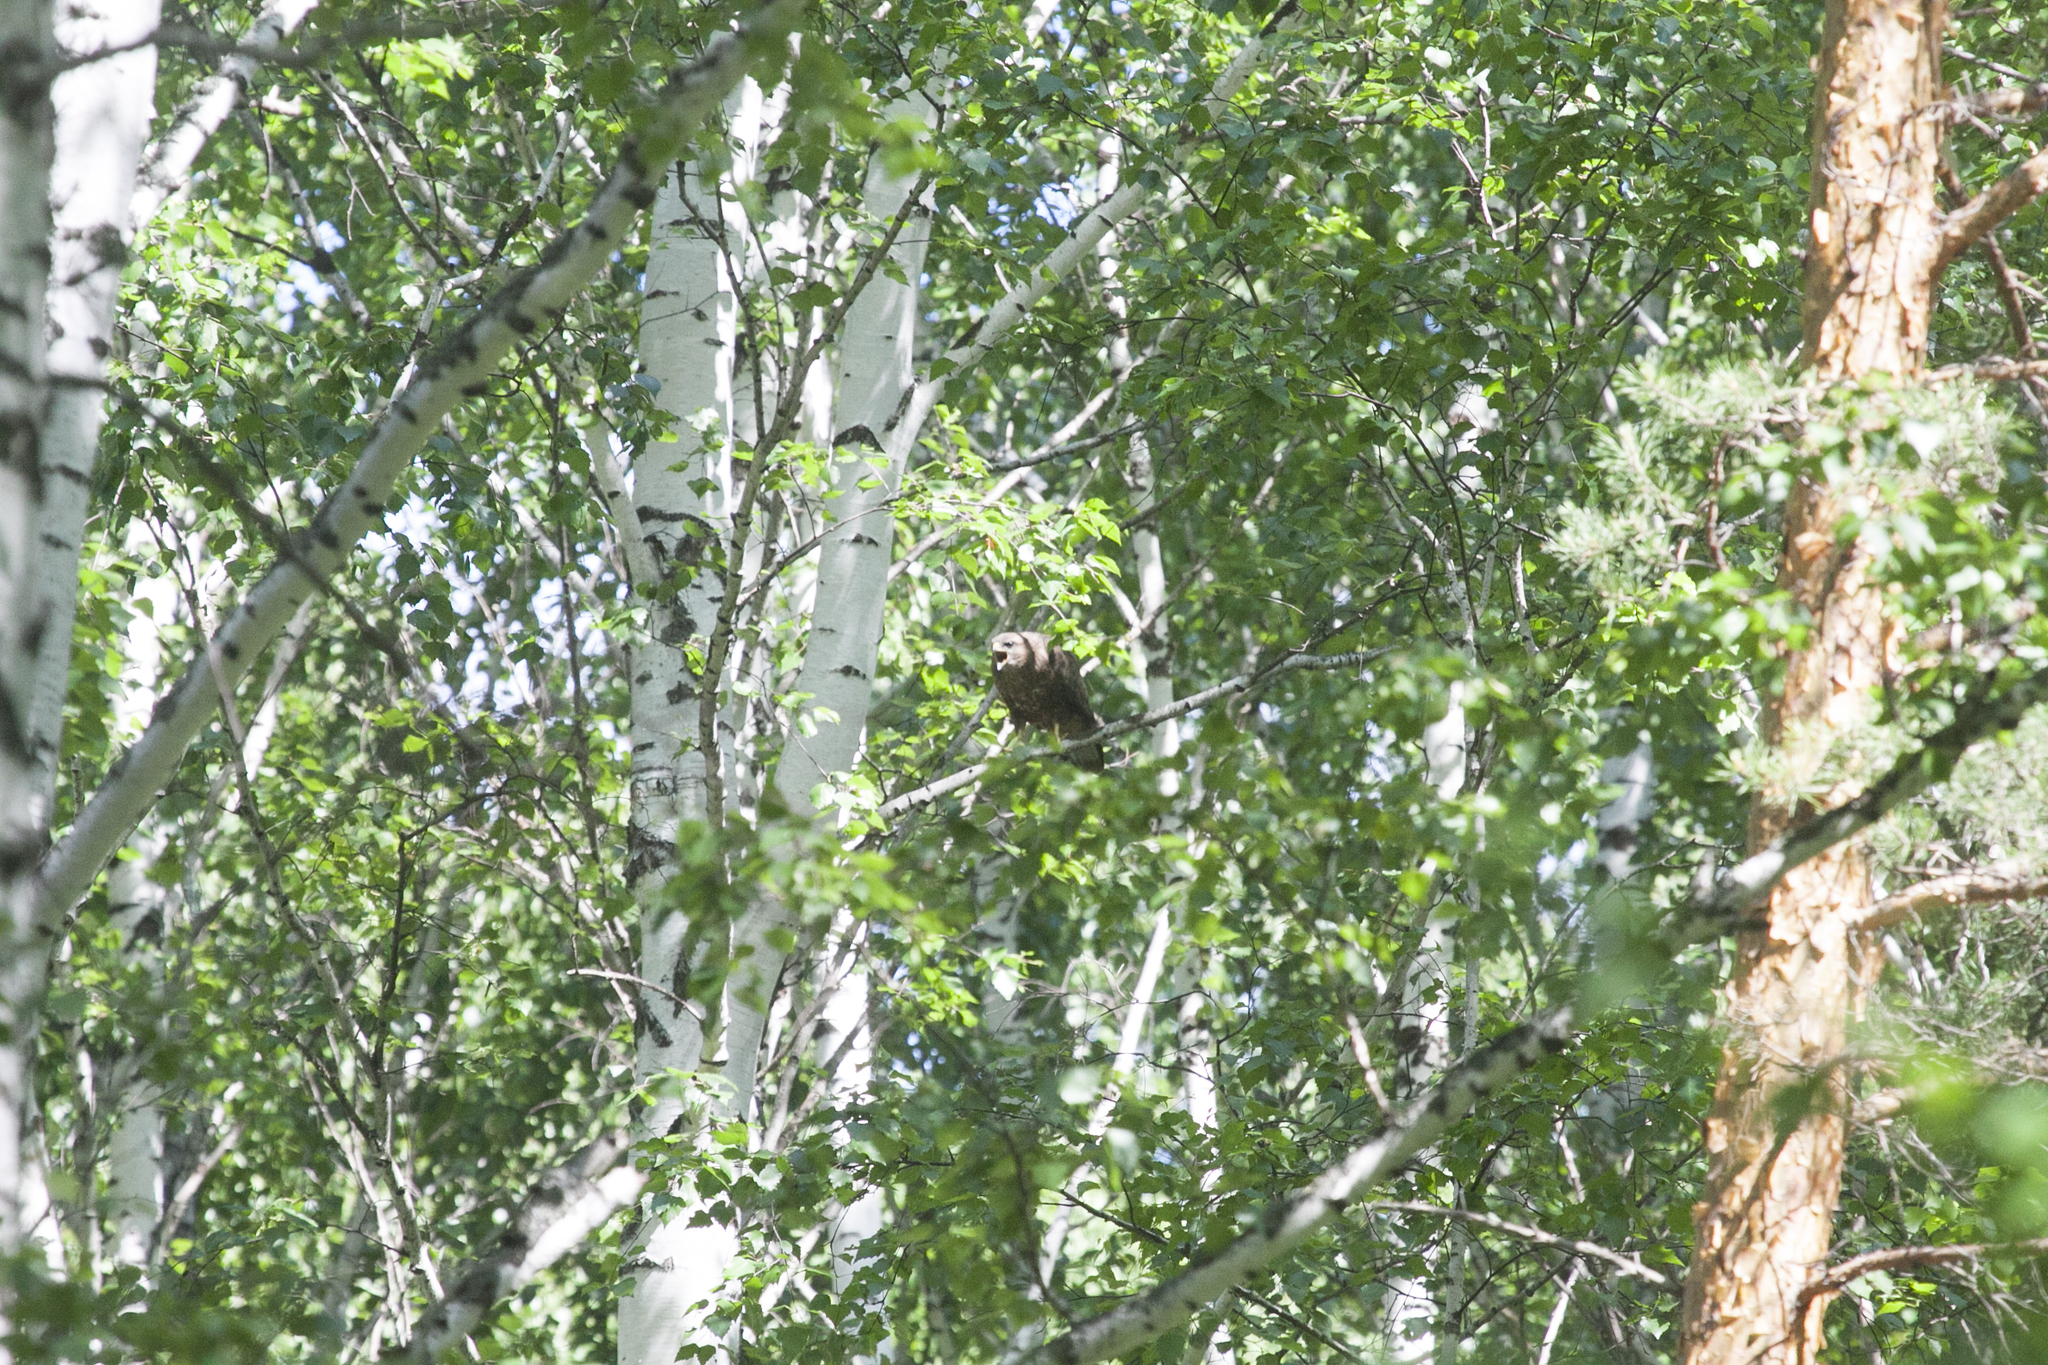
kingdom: Animalia
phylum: Chordata
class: Aves
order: Accipitriformes
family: Accipitridae
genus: Buteo
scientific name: Buteo buteo
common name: Common buzzard
